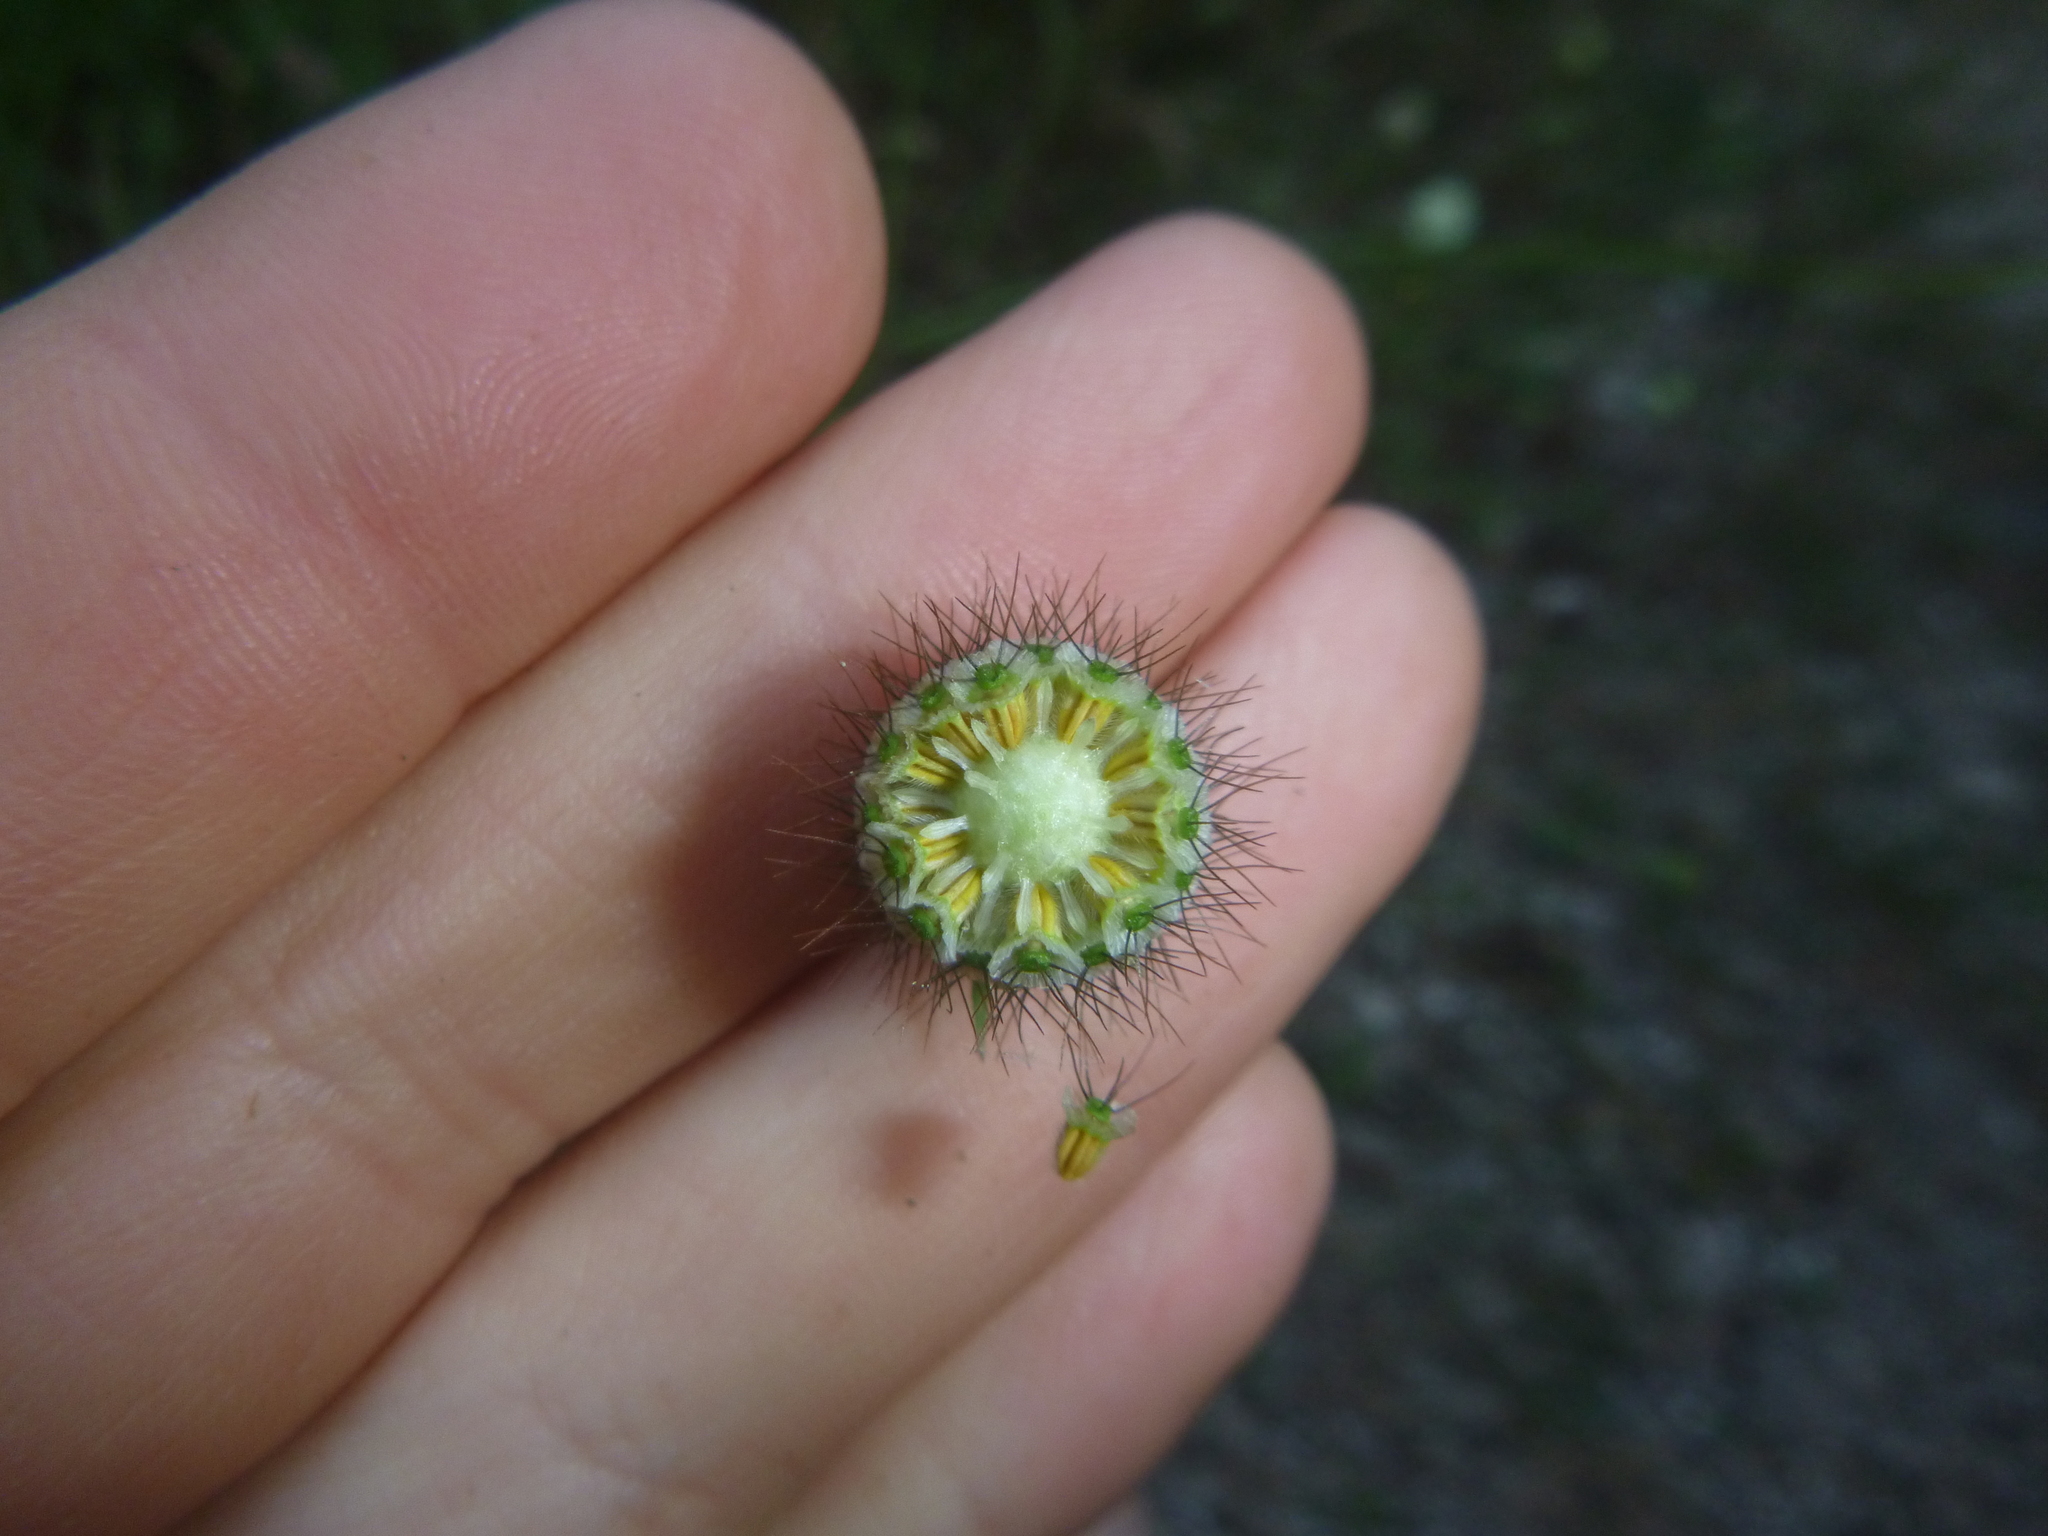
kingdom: Plantae
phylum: Tracheophyta
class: Magnoliopsida
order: Dipsacales
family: Caprifoliaceae
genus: Scabiosa
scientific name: Scabiosa ochroleuca
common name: Cream pincushions
